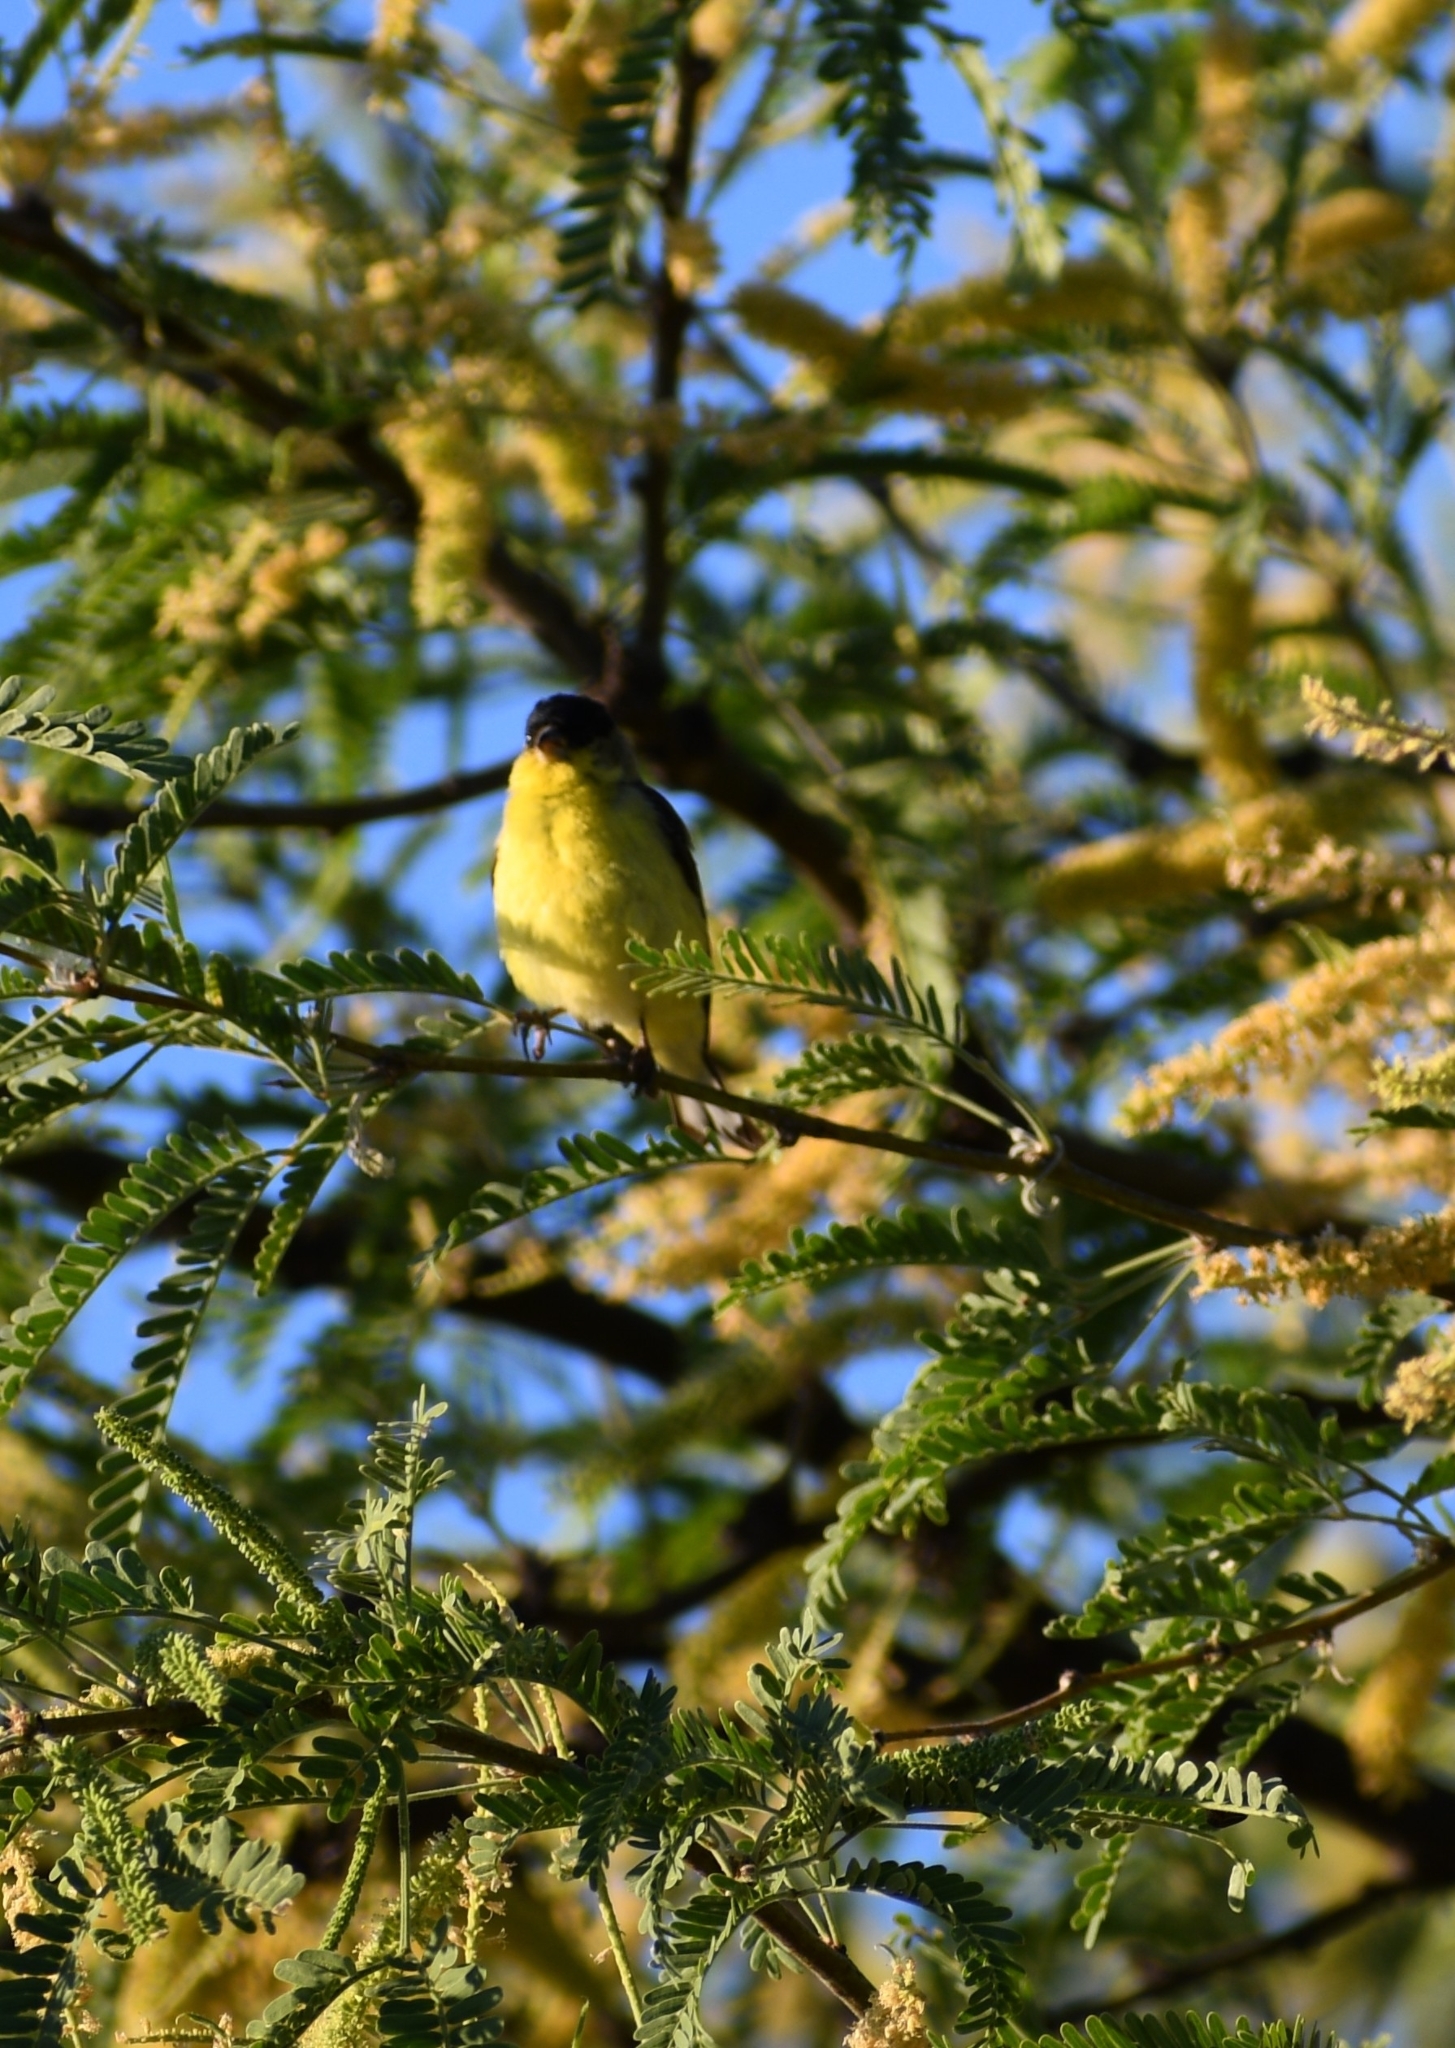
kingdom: Animalia
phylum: Chordata
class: Aves
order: Passeriformes
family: Fringillidae
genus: Spinus
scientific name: Spinus psaltria
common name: Lesser goldfinch
